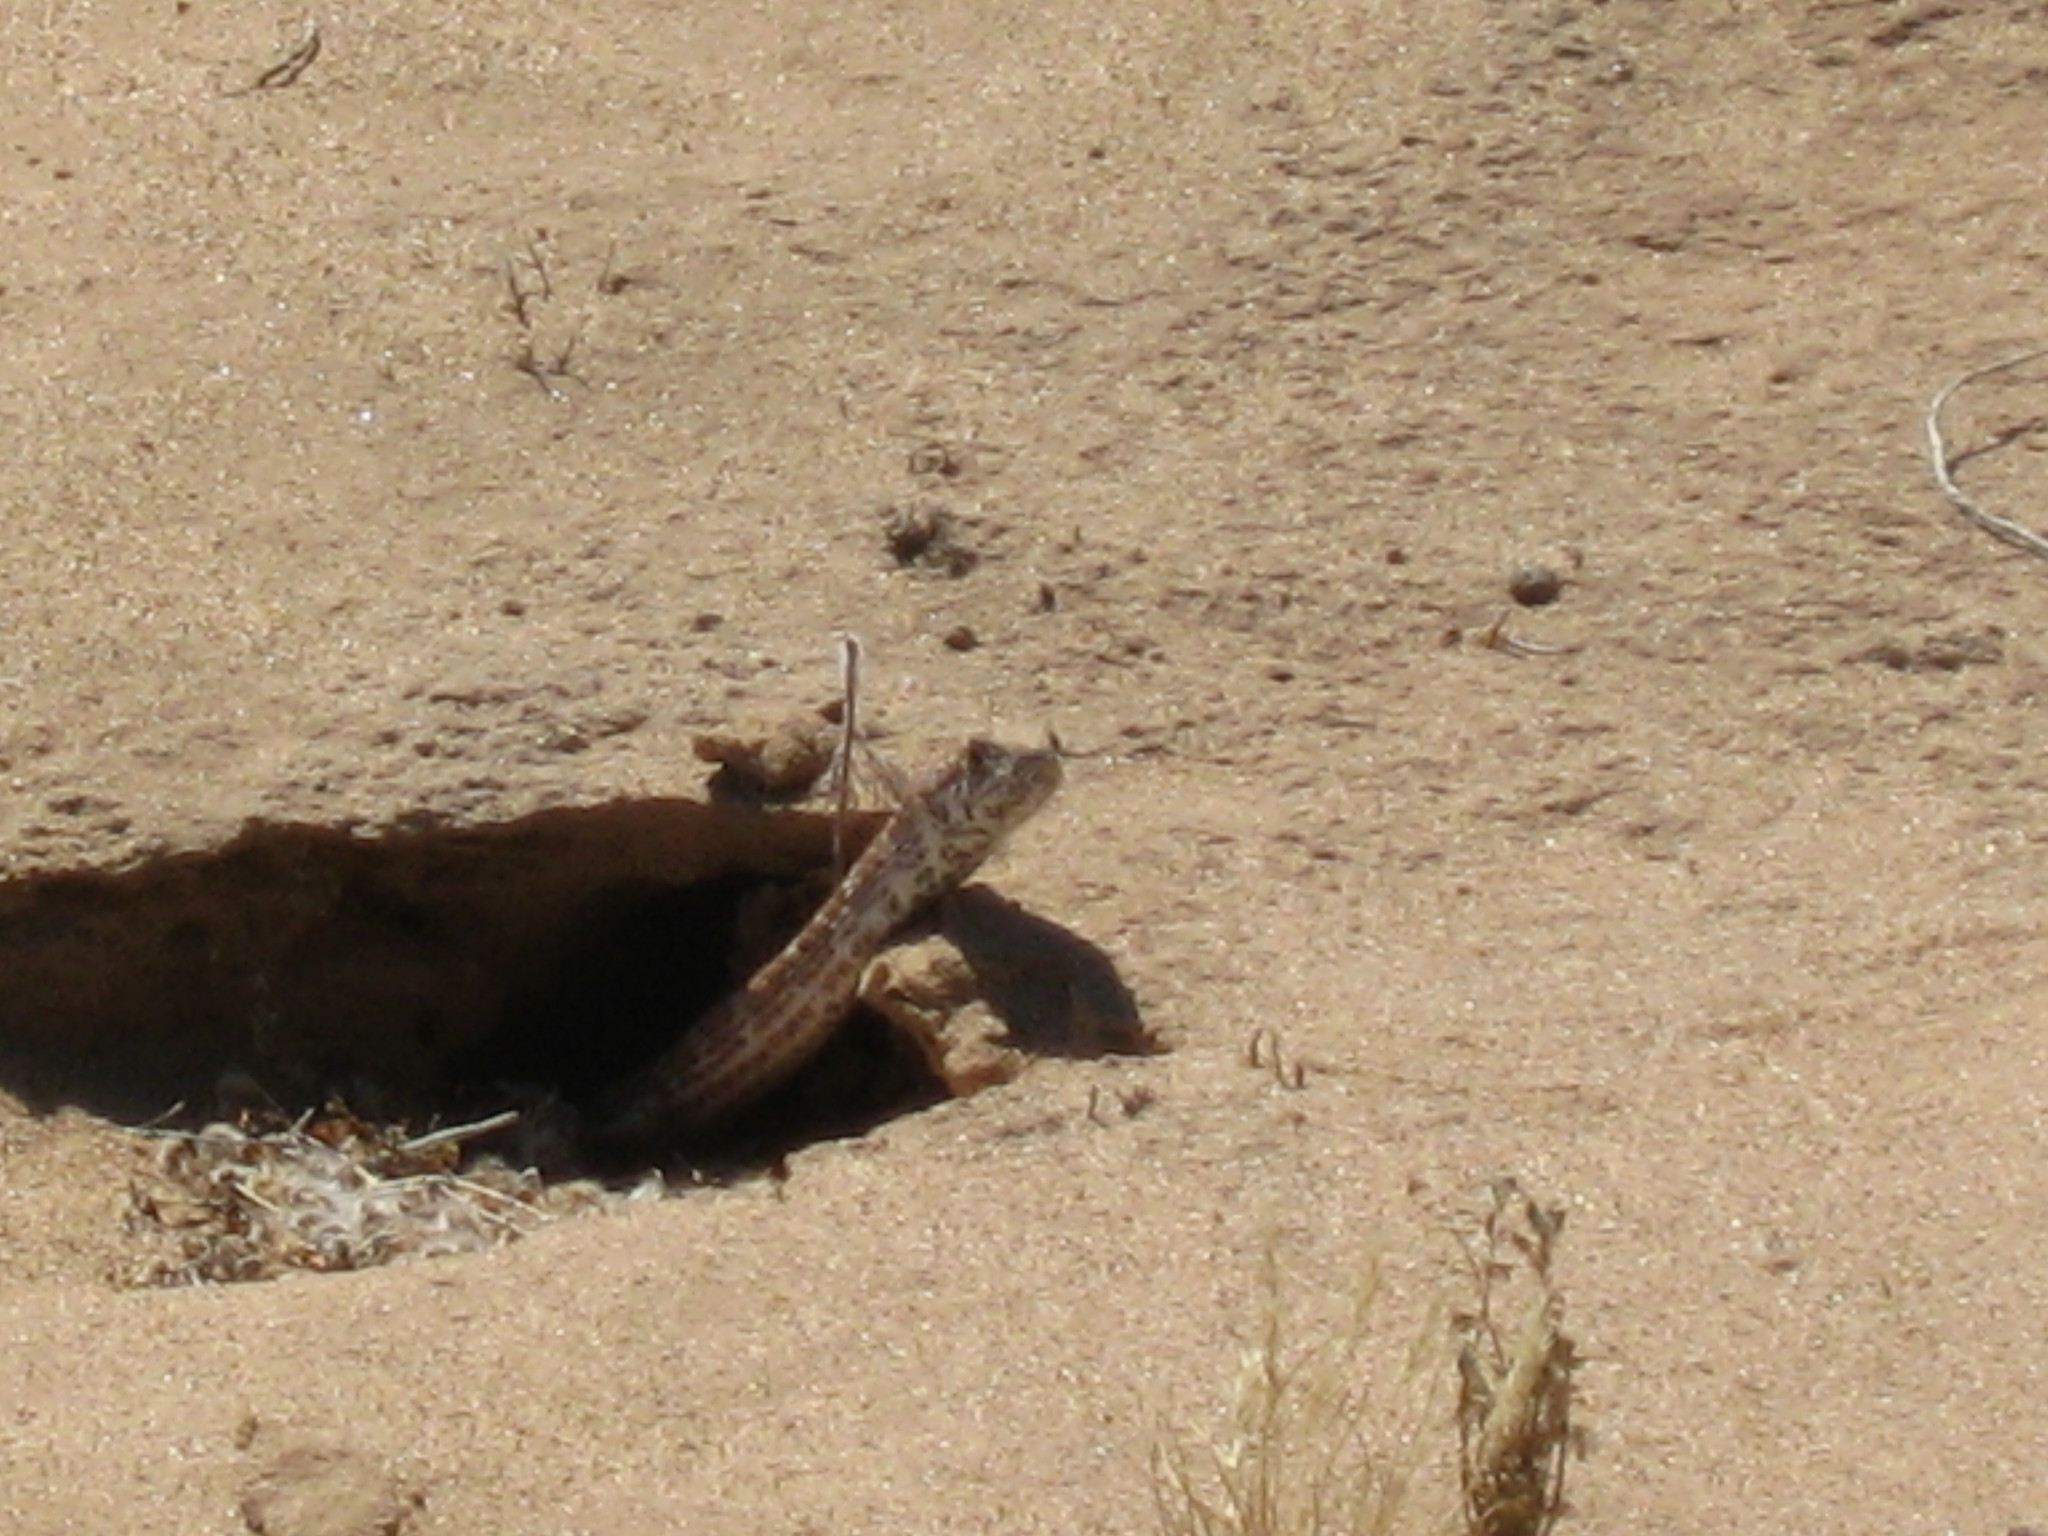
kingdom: Animalia
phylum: Chordata
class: Squamata
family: Colubridae
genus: Masticophis
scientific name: Masticophis flagellum
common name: Coachwhip
